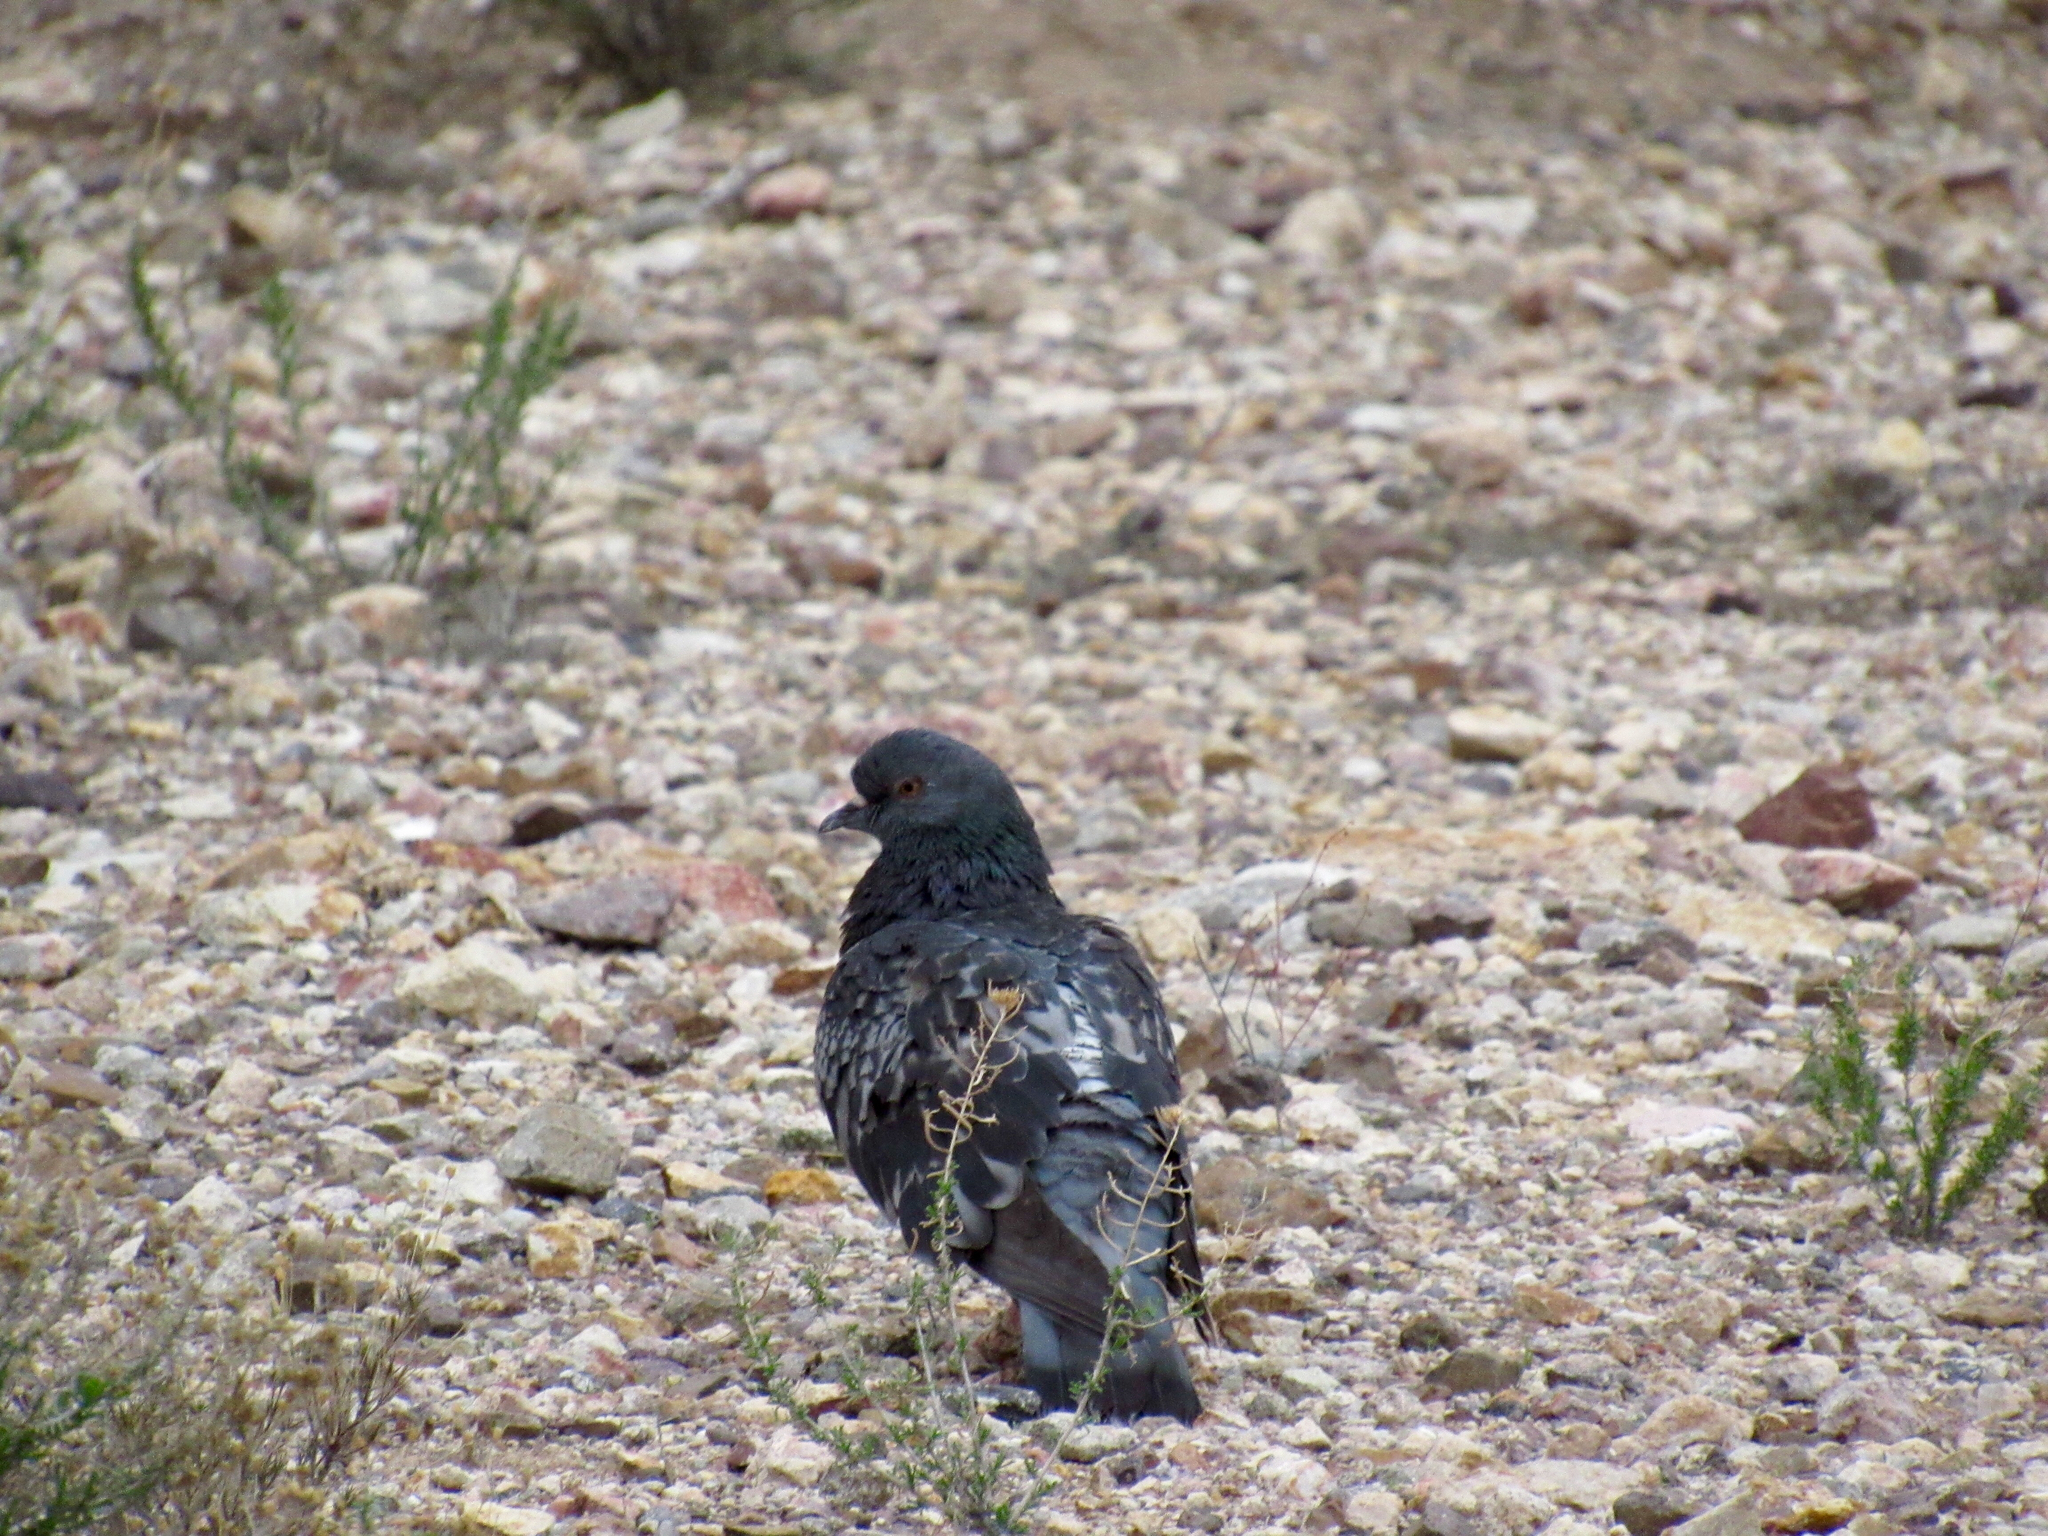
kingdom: Animalia
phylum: Chordata
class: Aves
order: Columbiformes
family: Columbidae
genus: Columba
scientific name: Columba livia
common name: Rock pigeon
